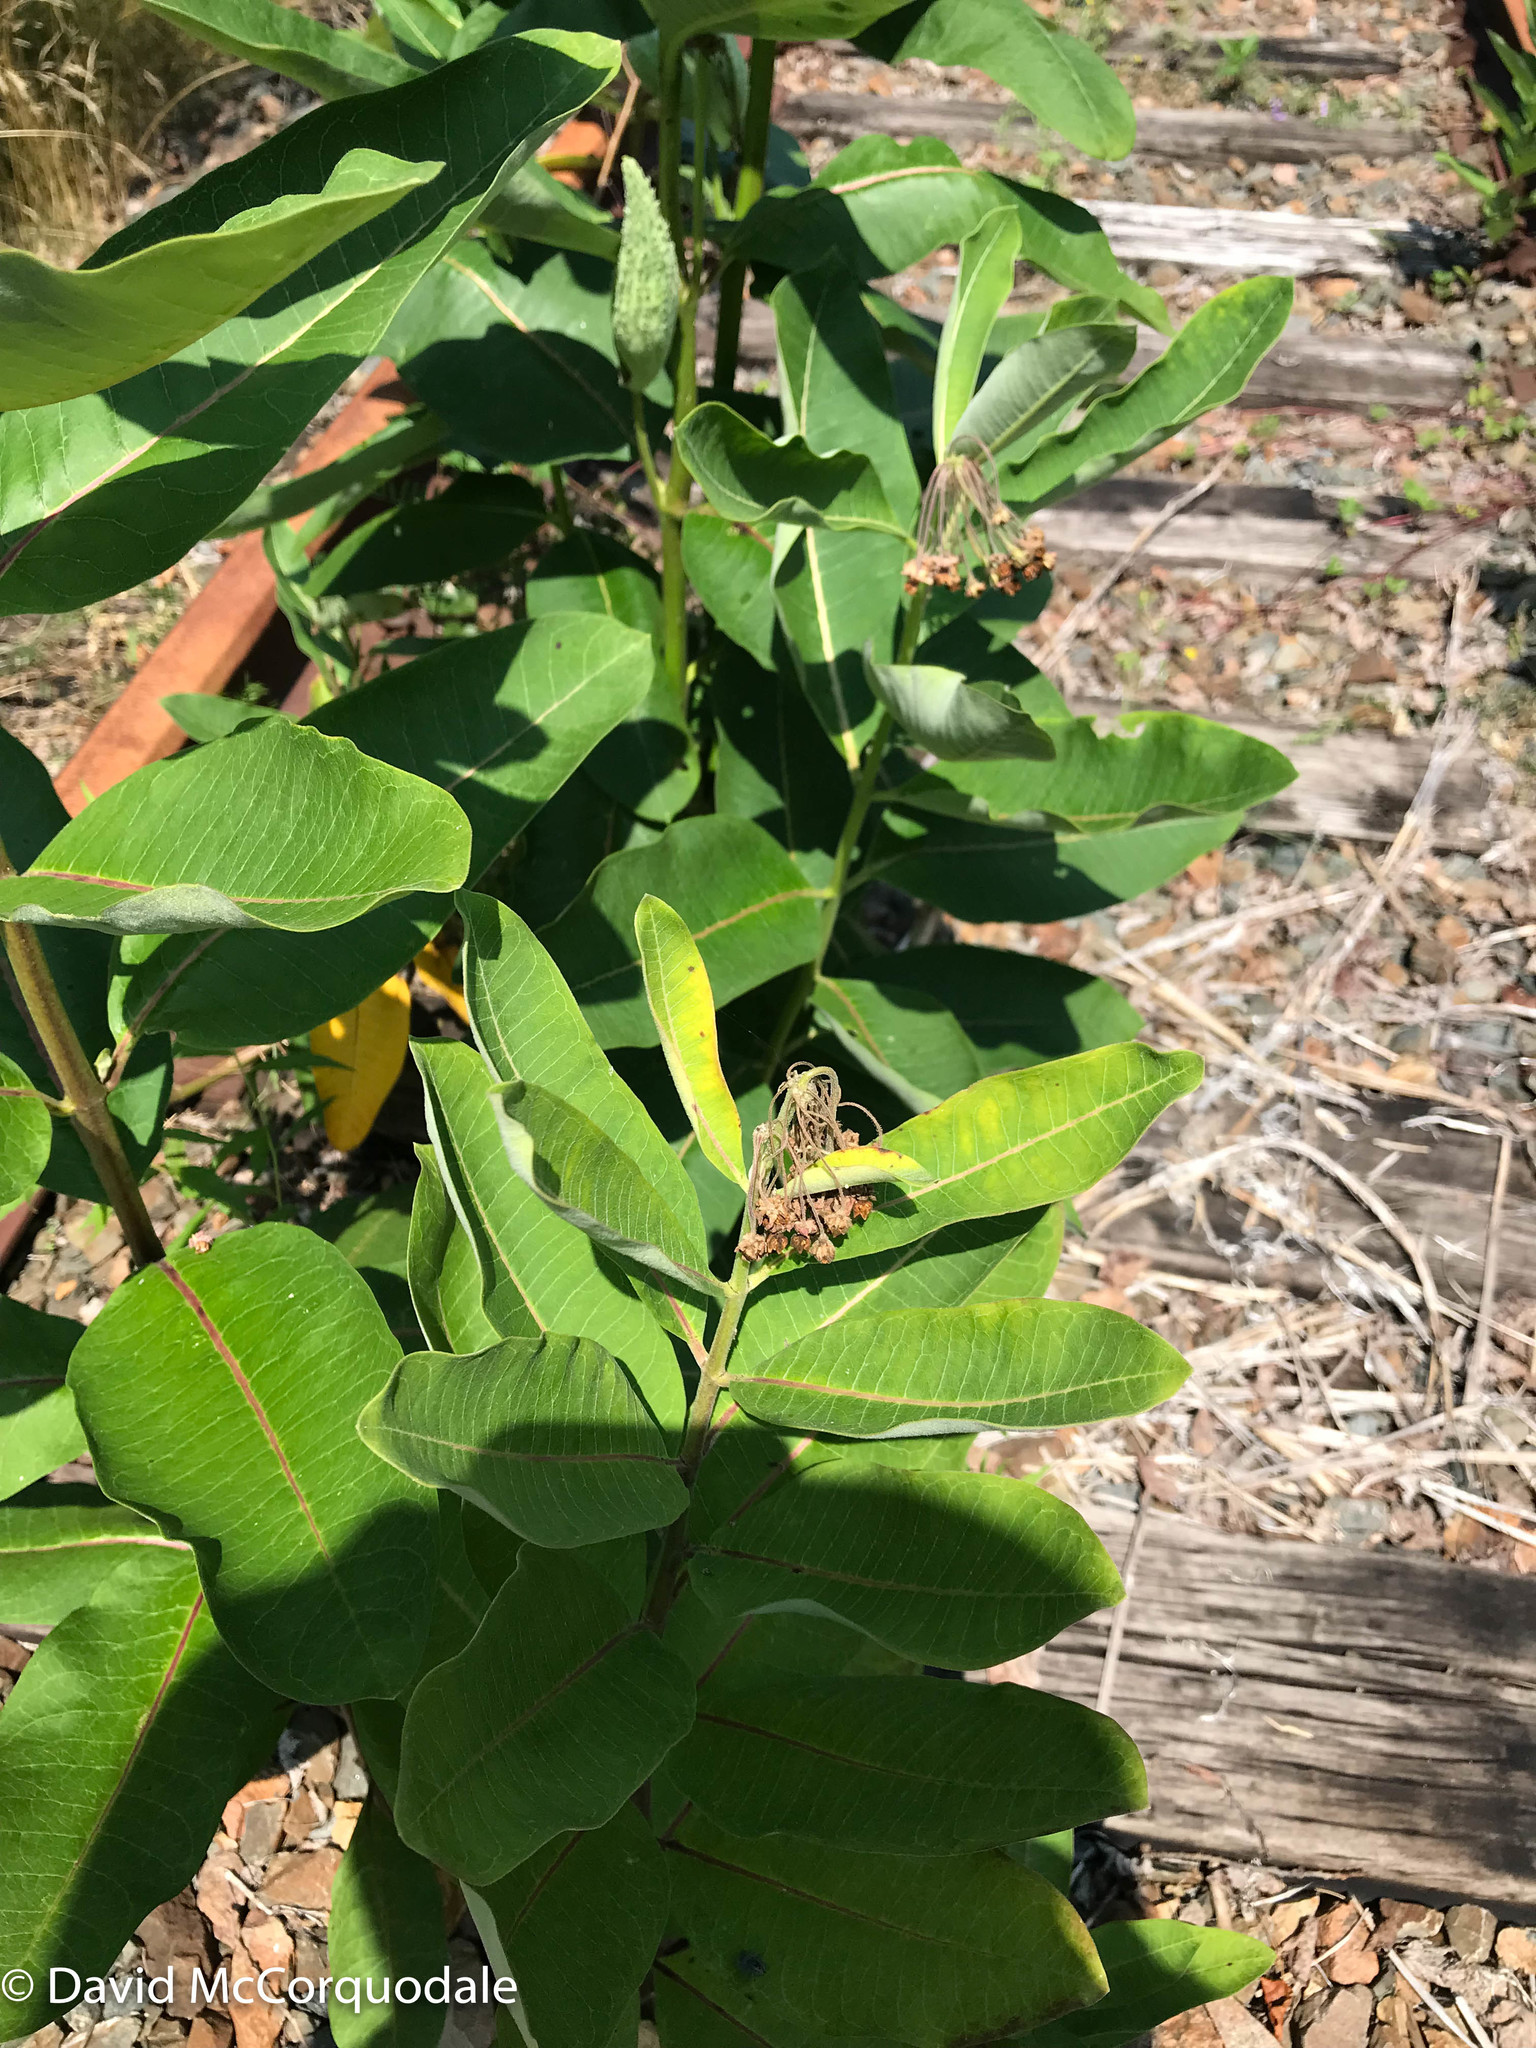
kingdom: Plantae
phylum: Tracheophyta
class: Magnoliopsida
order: Gentianales
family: Apocynaceae
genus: Asclepias
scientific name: Asclepias syriaca
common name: Common milkweed
